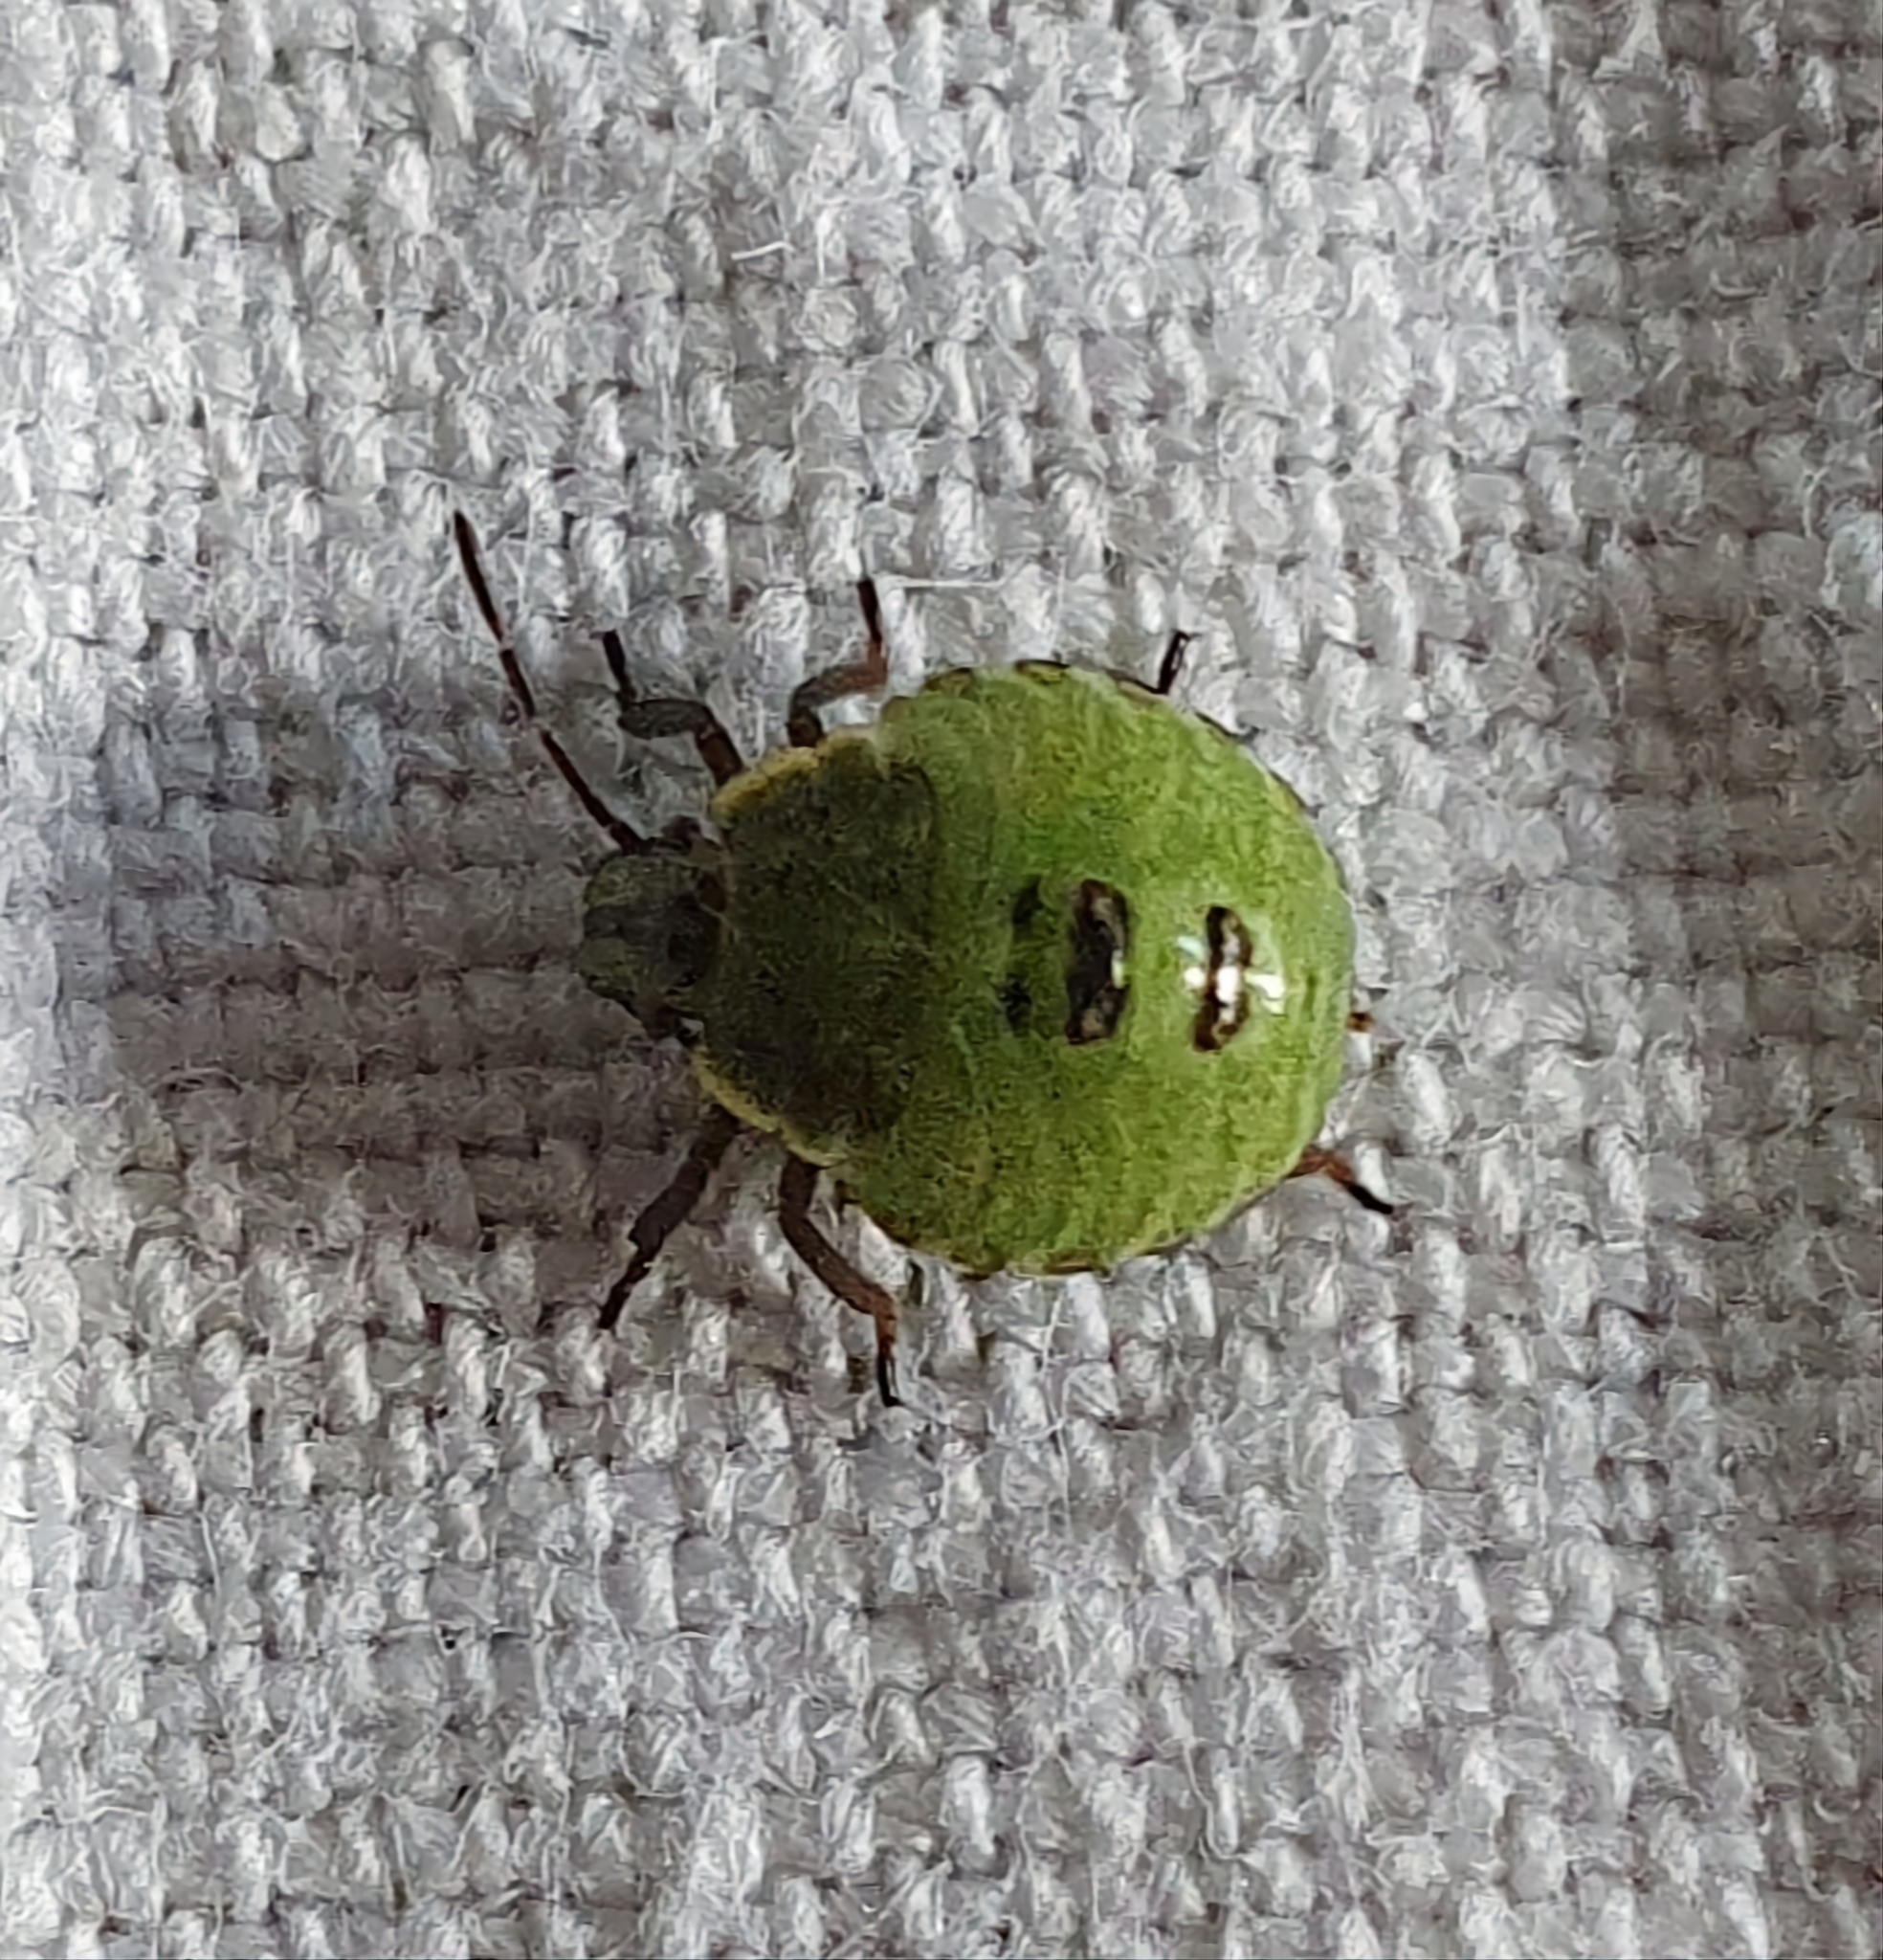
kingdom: Animalia
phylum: Arthropoda
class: Insecta
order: Hemiptera
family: Pentatomidae
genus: Palomena
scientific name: Palomena prasina
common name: Green shieldbug
